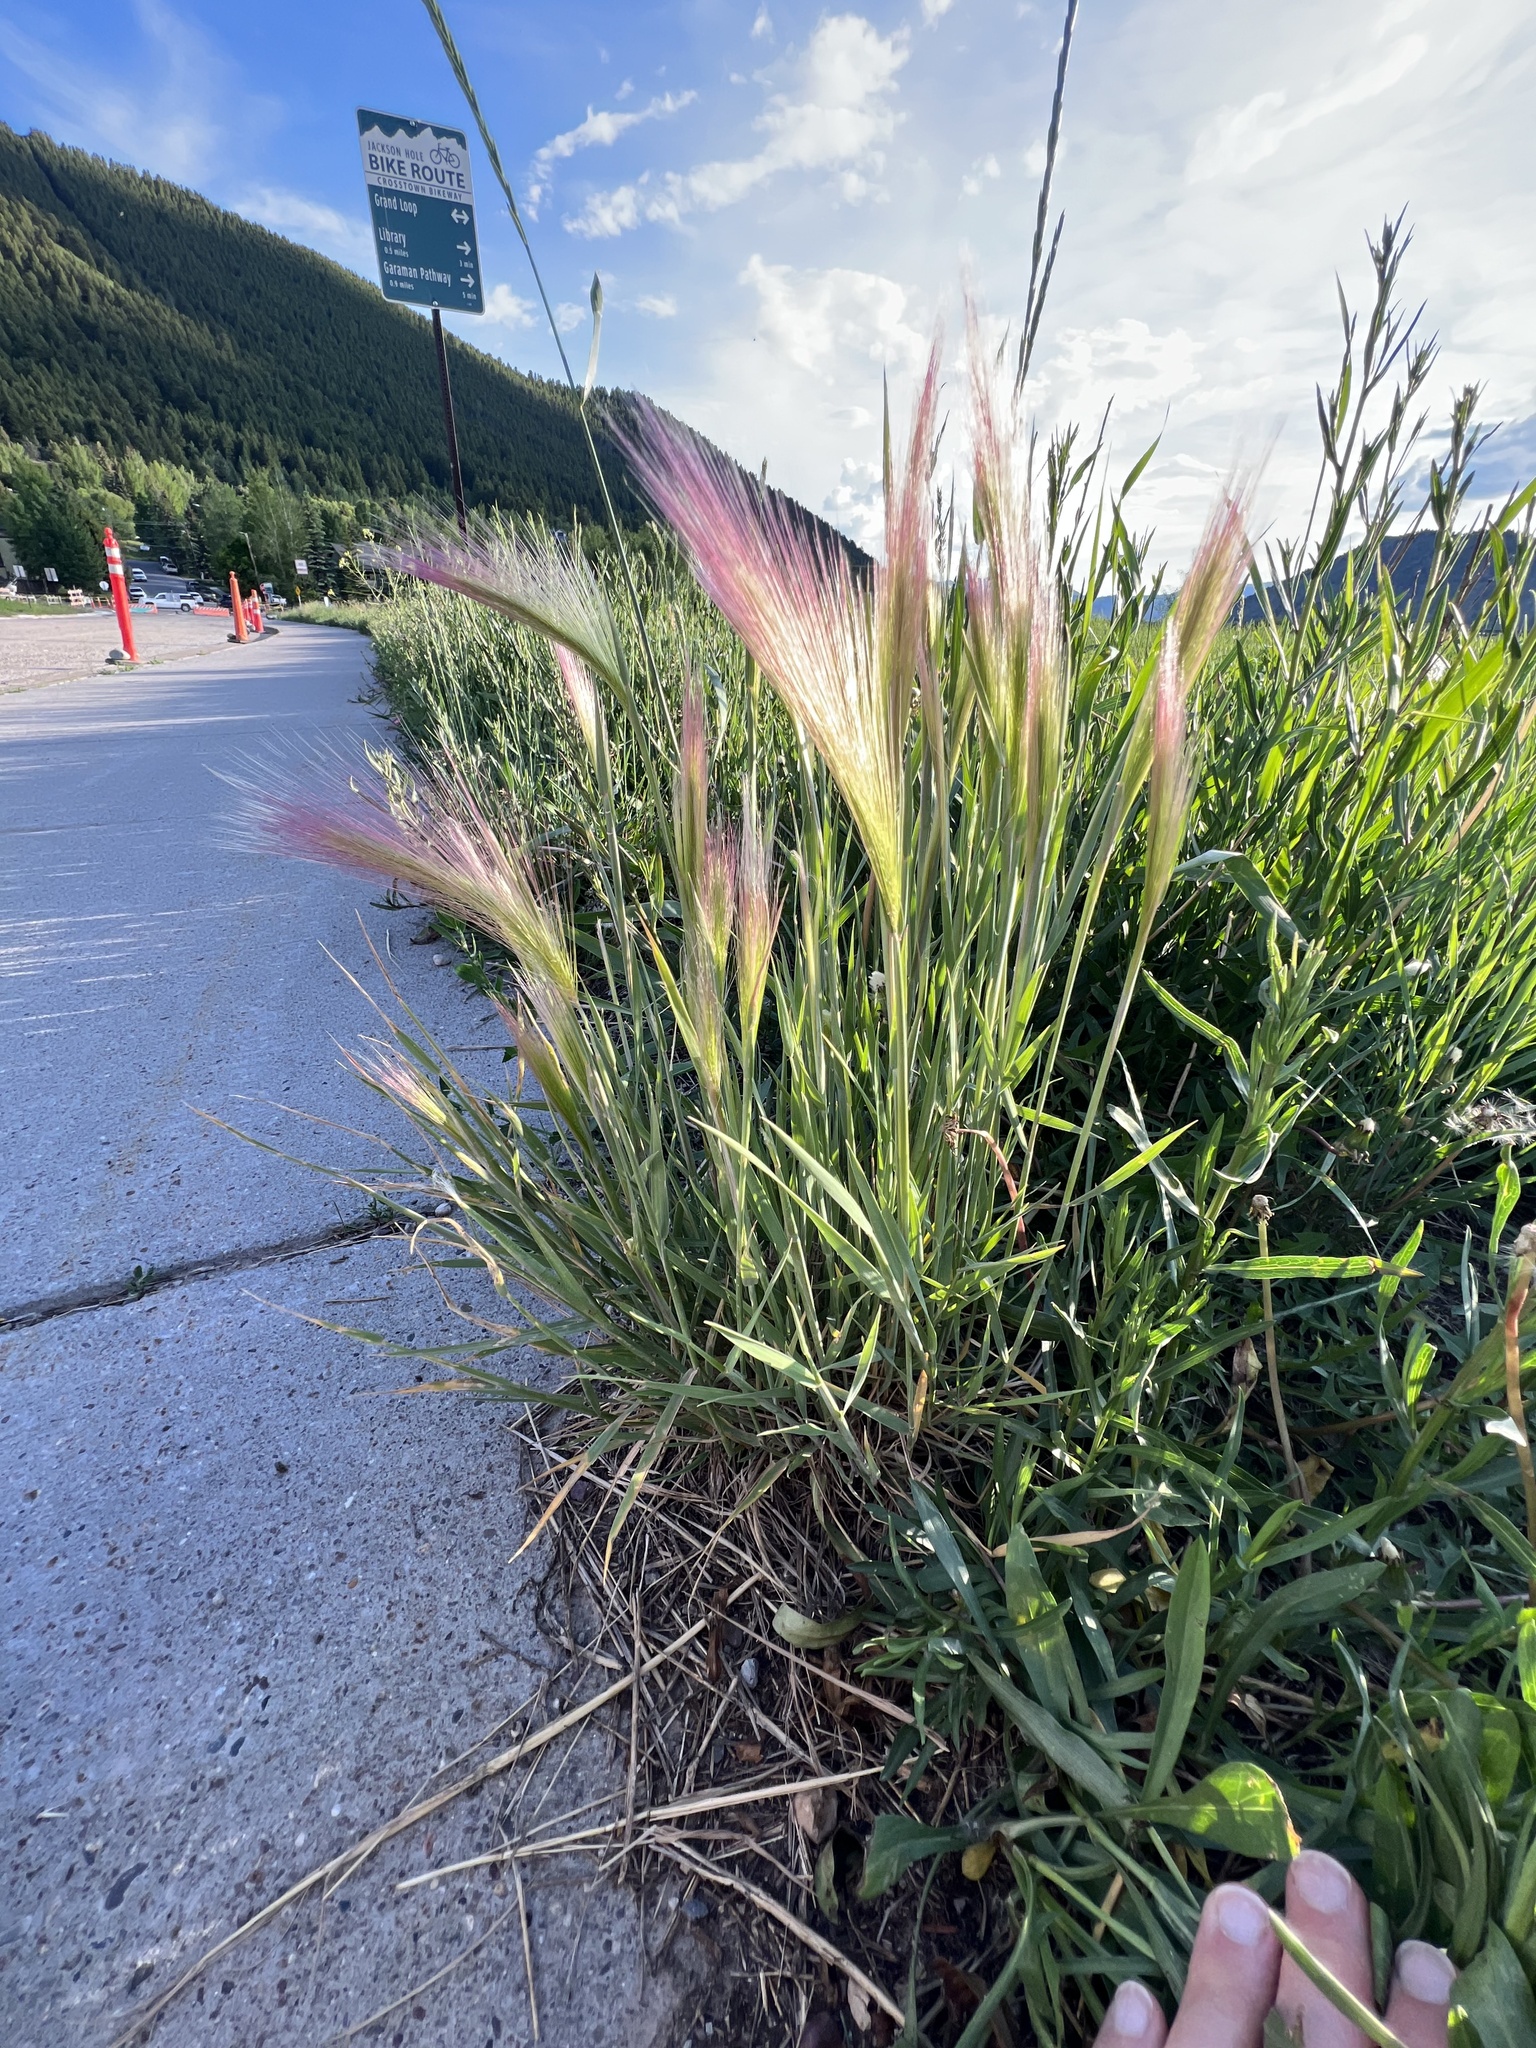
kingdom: Plantae
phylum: Tracheophyta
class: Liliopsida
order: Poales
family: Poaceae
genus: Hordeum
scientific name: Hordeum jubatum
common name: Foxtail barley
